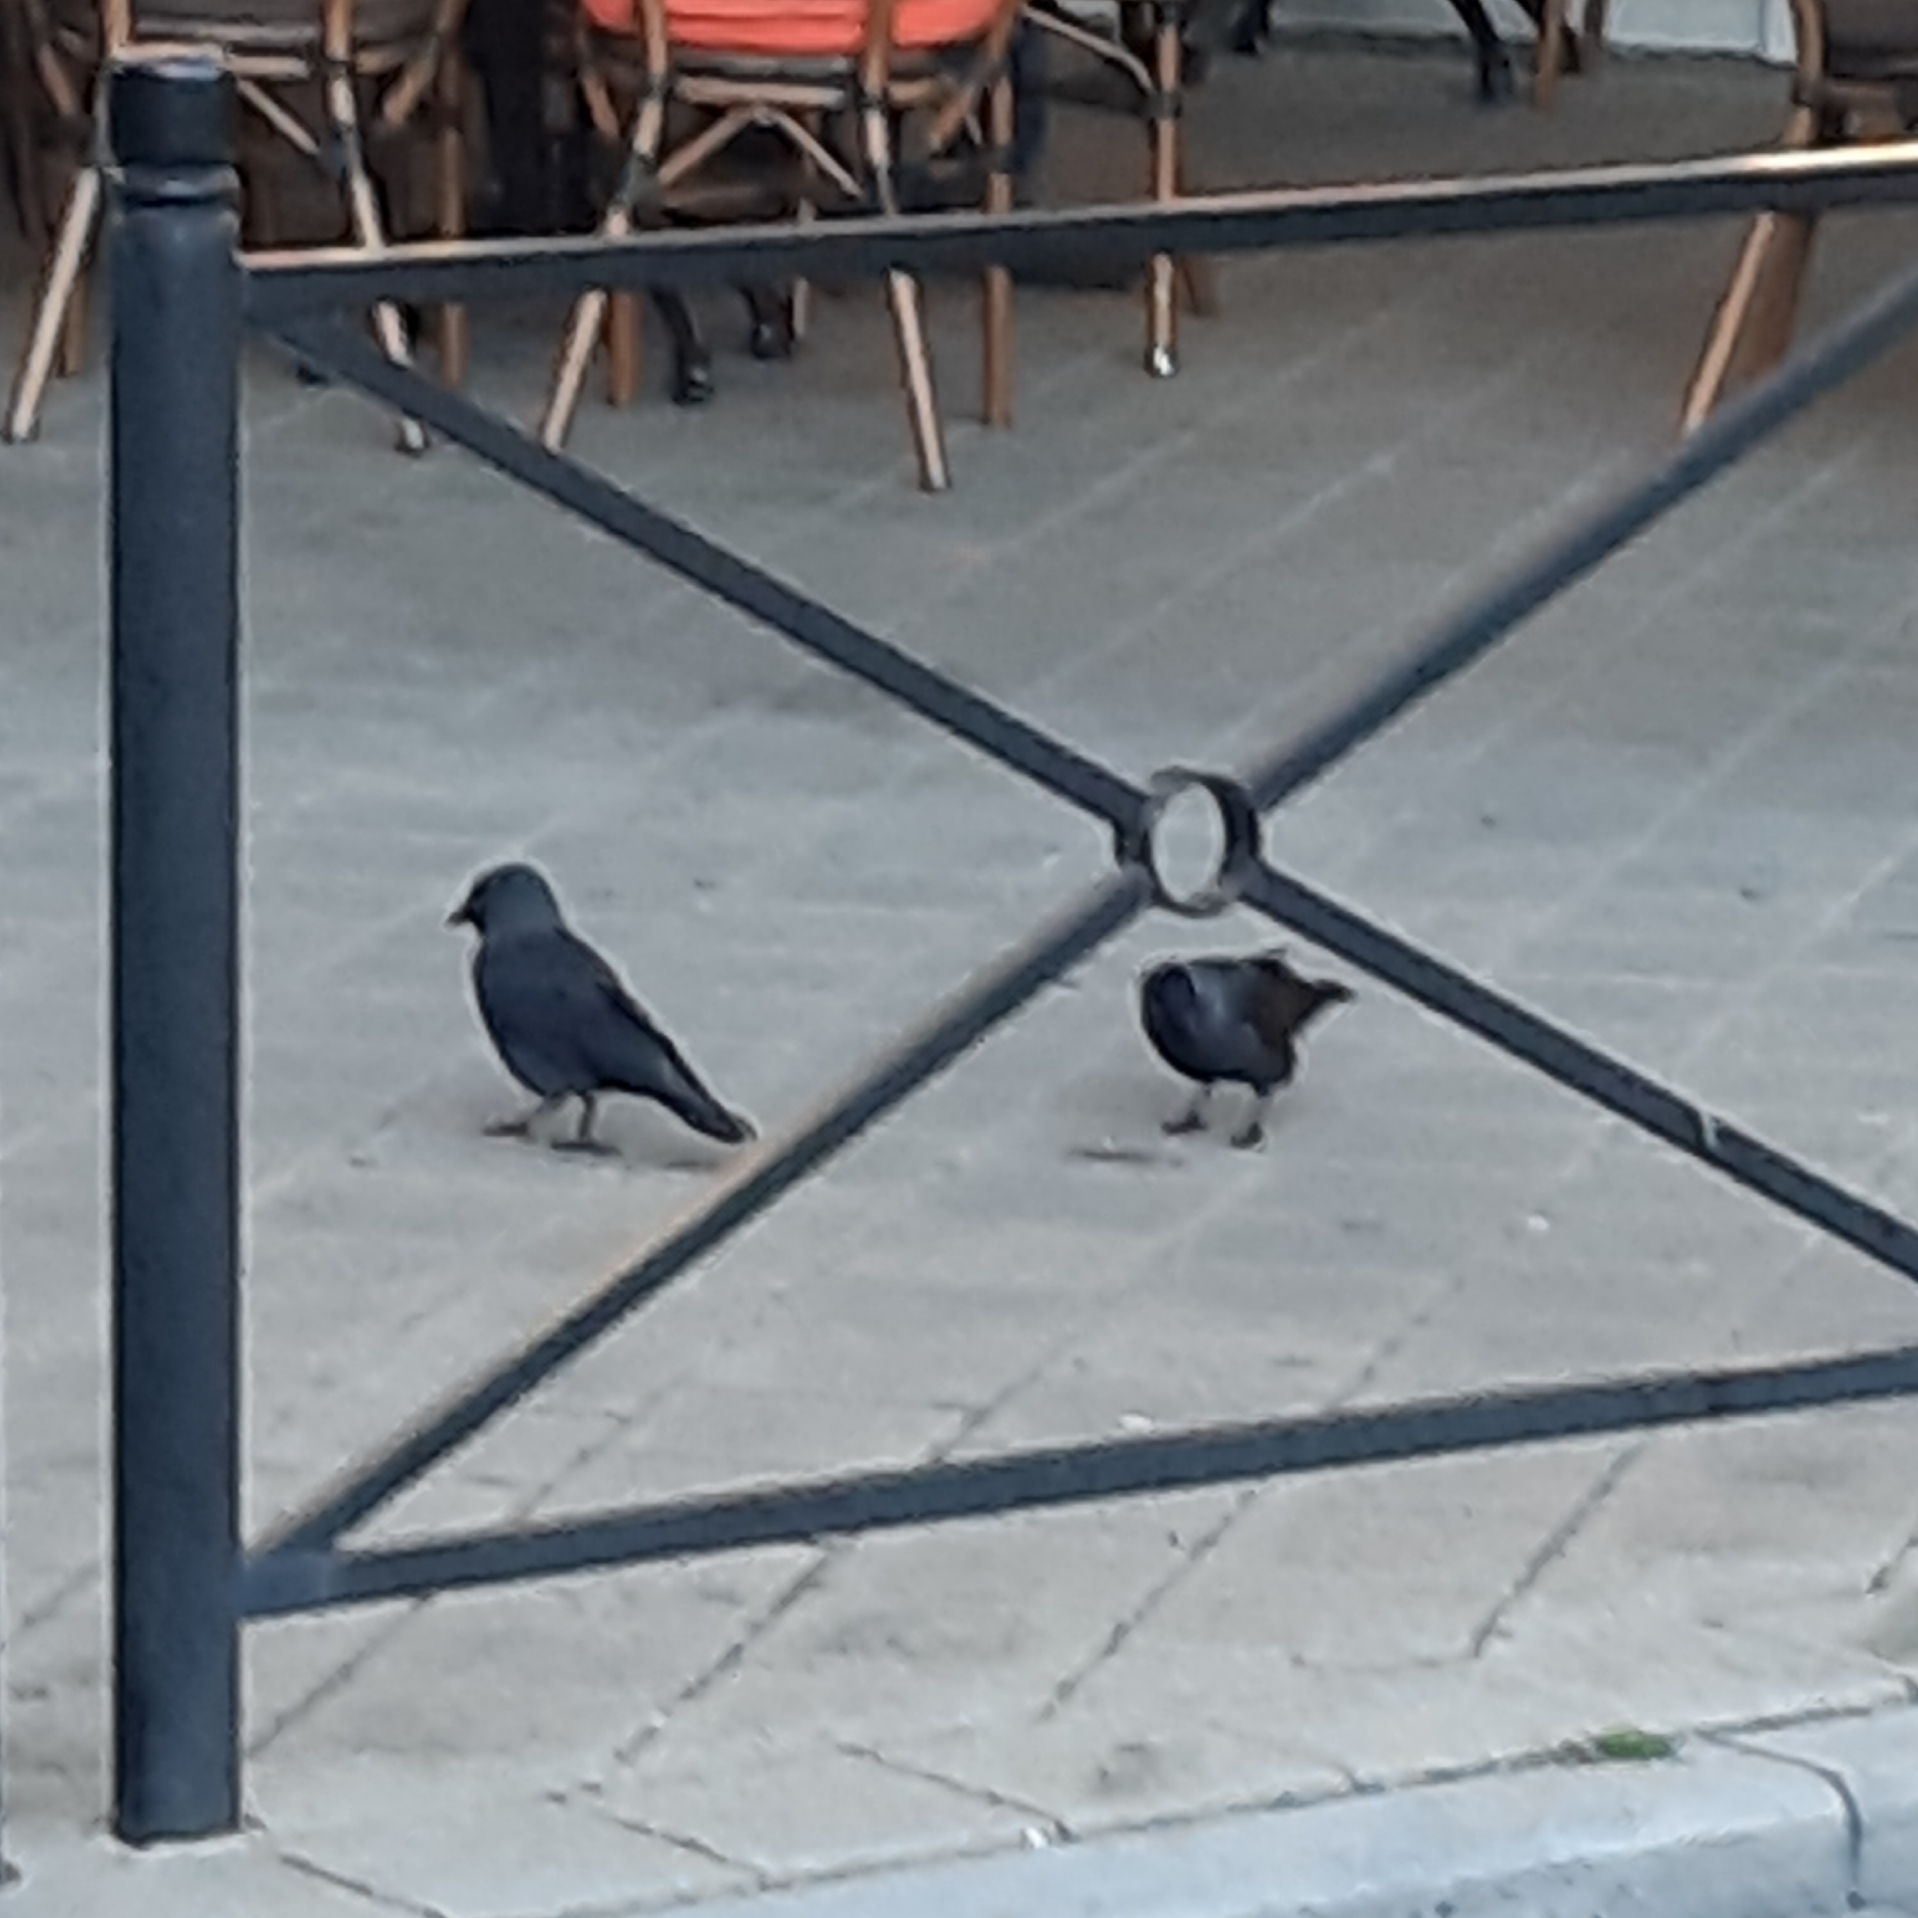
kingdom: Animalia
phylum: Chordata
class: Aves
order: Passeriformes
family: Corvidae
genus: Coloeus
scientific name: Coloeus monedula
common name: Western jackdaw
